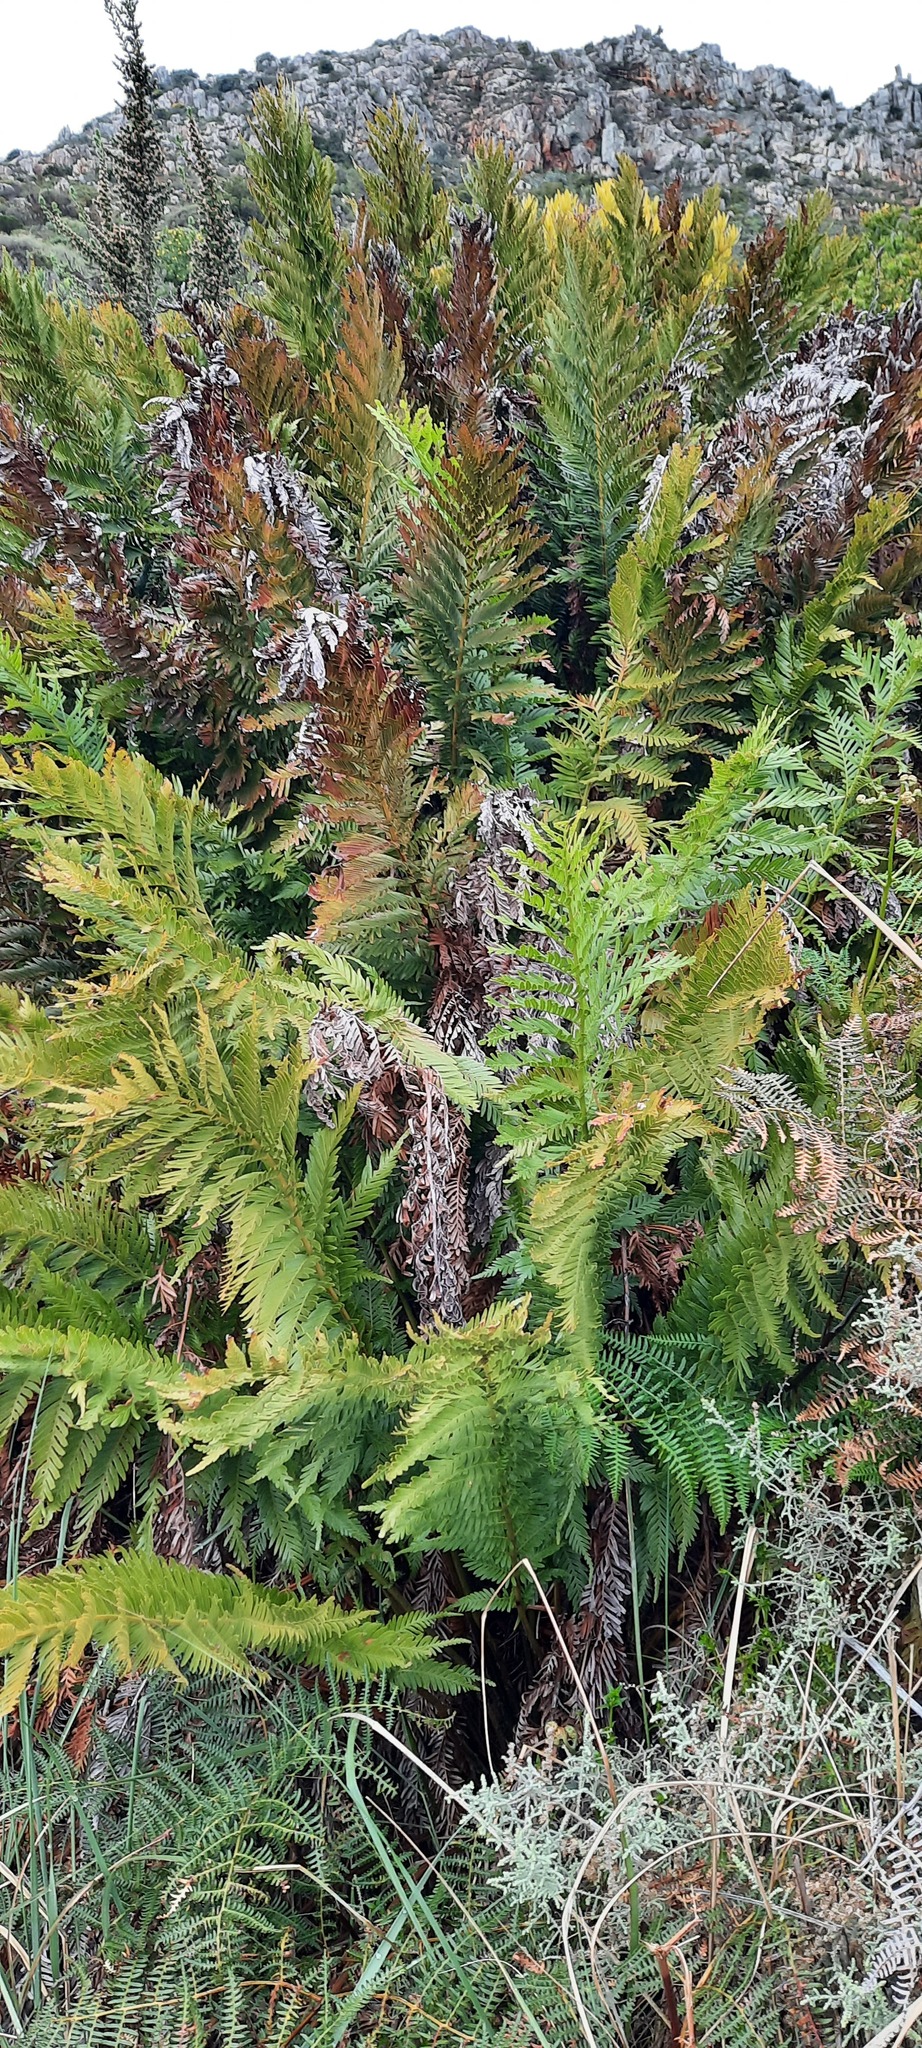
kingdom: Plantae
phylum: Tracheophyta
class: Polypodiopsida
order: Osmundales
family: Osmundaceae
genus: Todea
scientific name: Todea barbara
